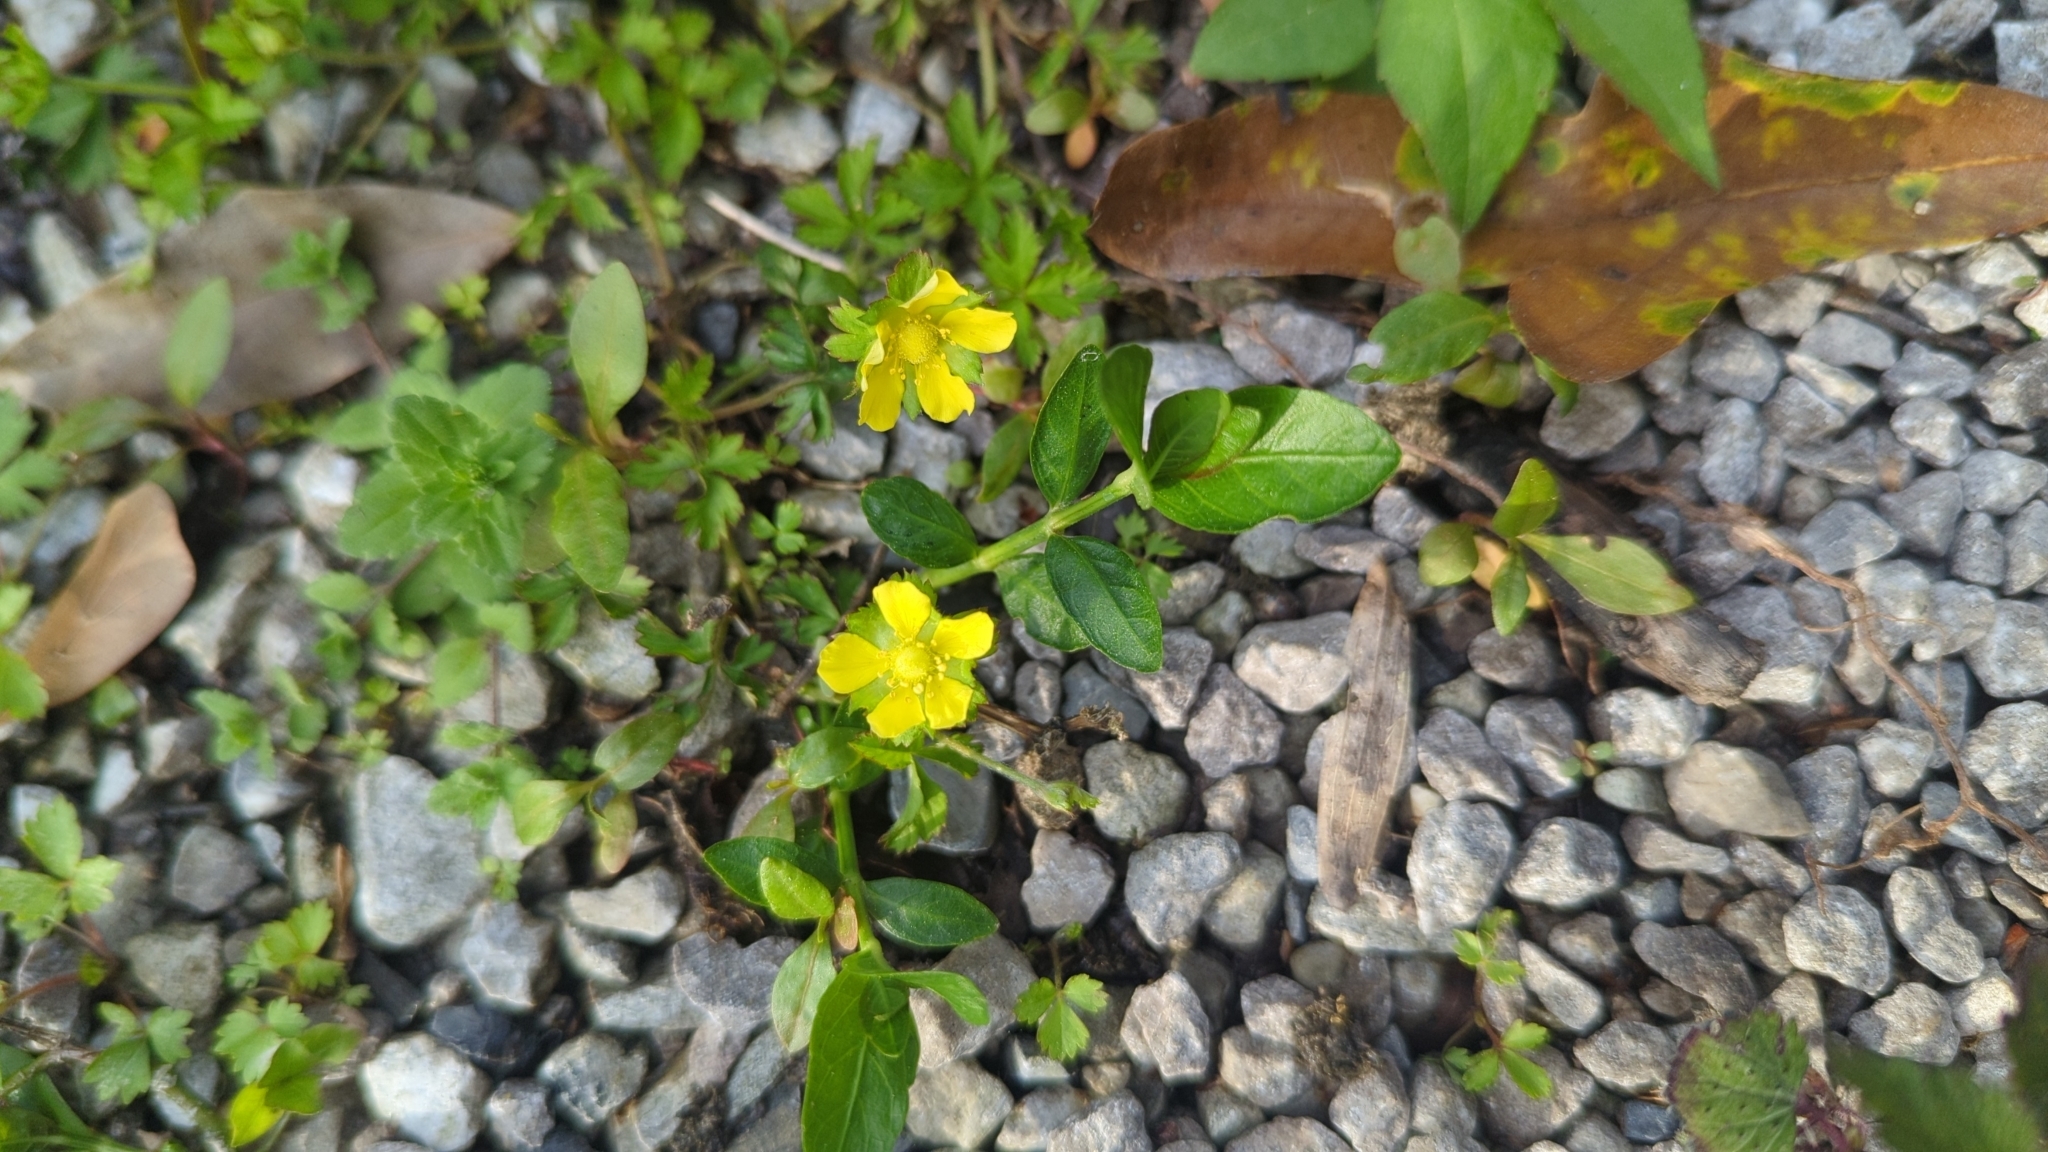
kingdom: Plantae
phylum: Tracheophyta
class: Magnoliopsida
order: Rosales
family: Rosaceae
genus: Potentilla
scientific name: Potentilla indica
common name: Yellow-flowered strawberry
